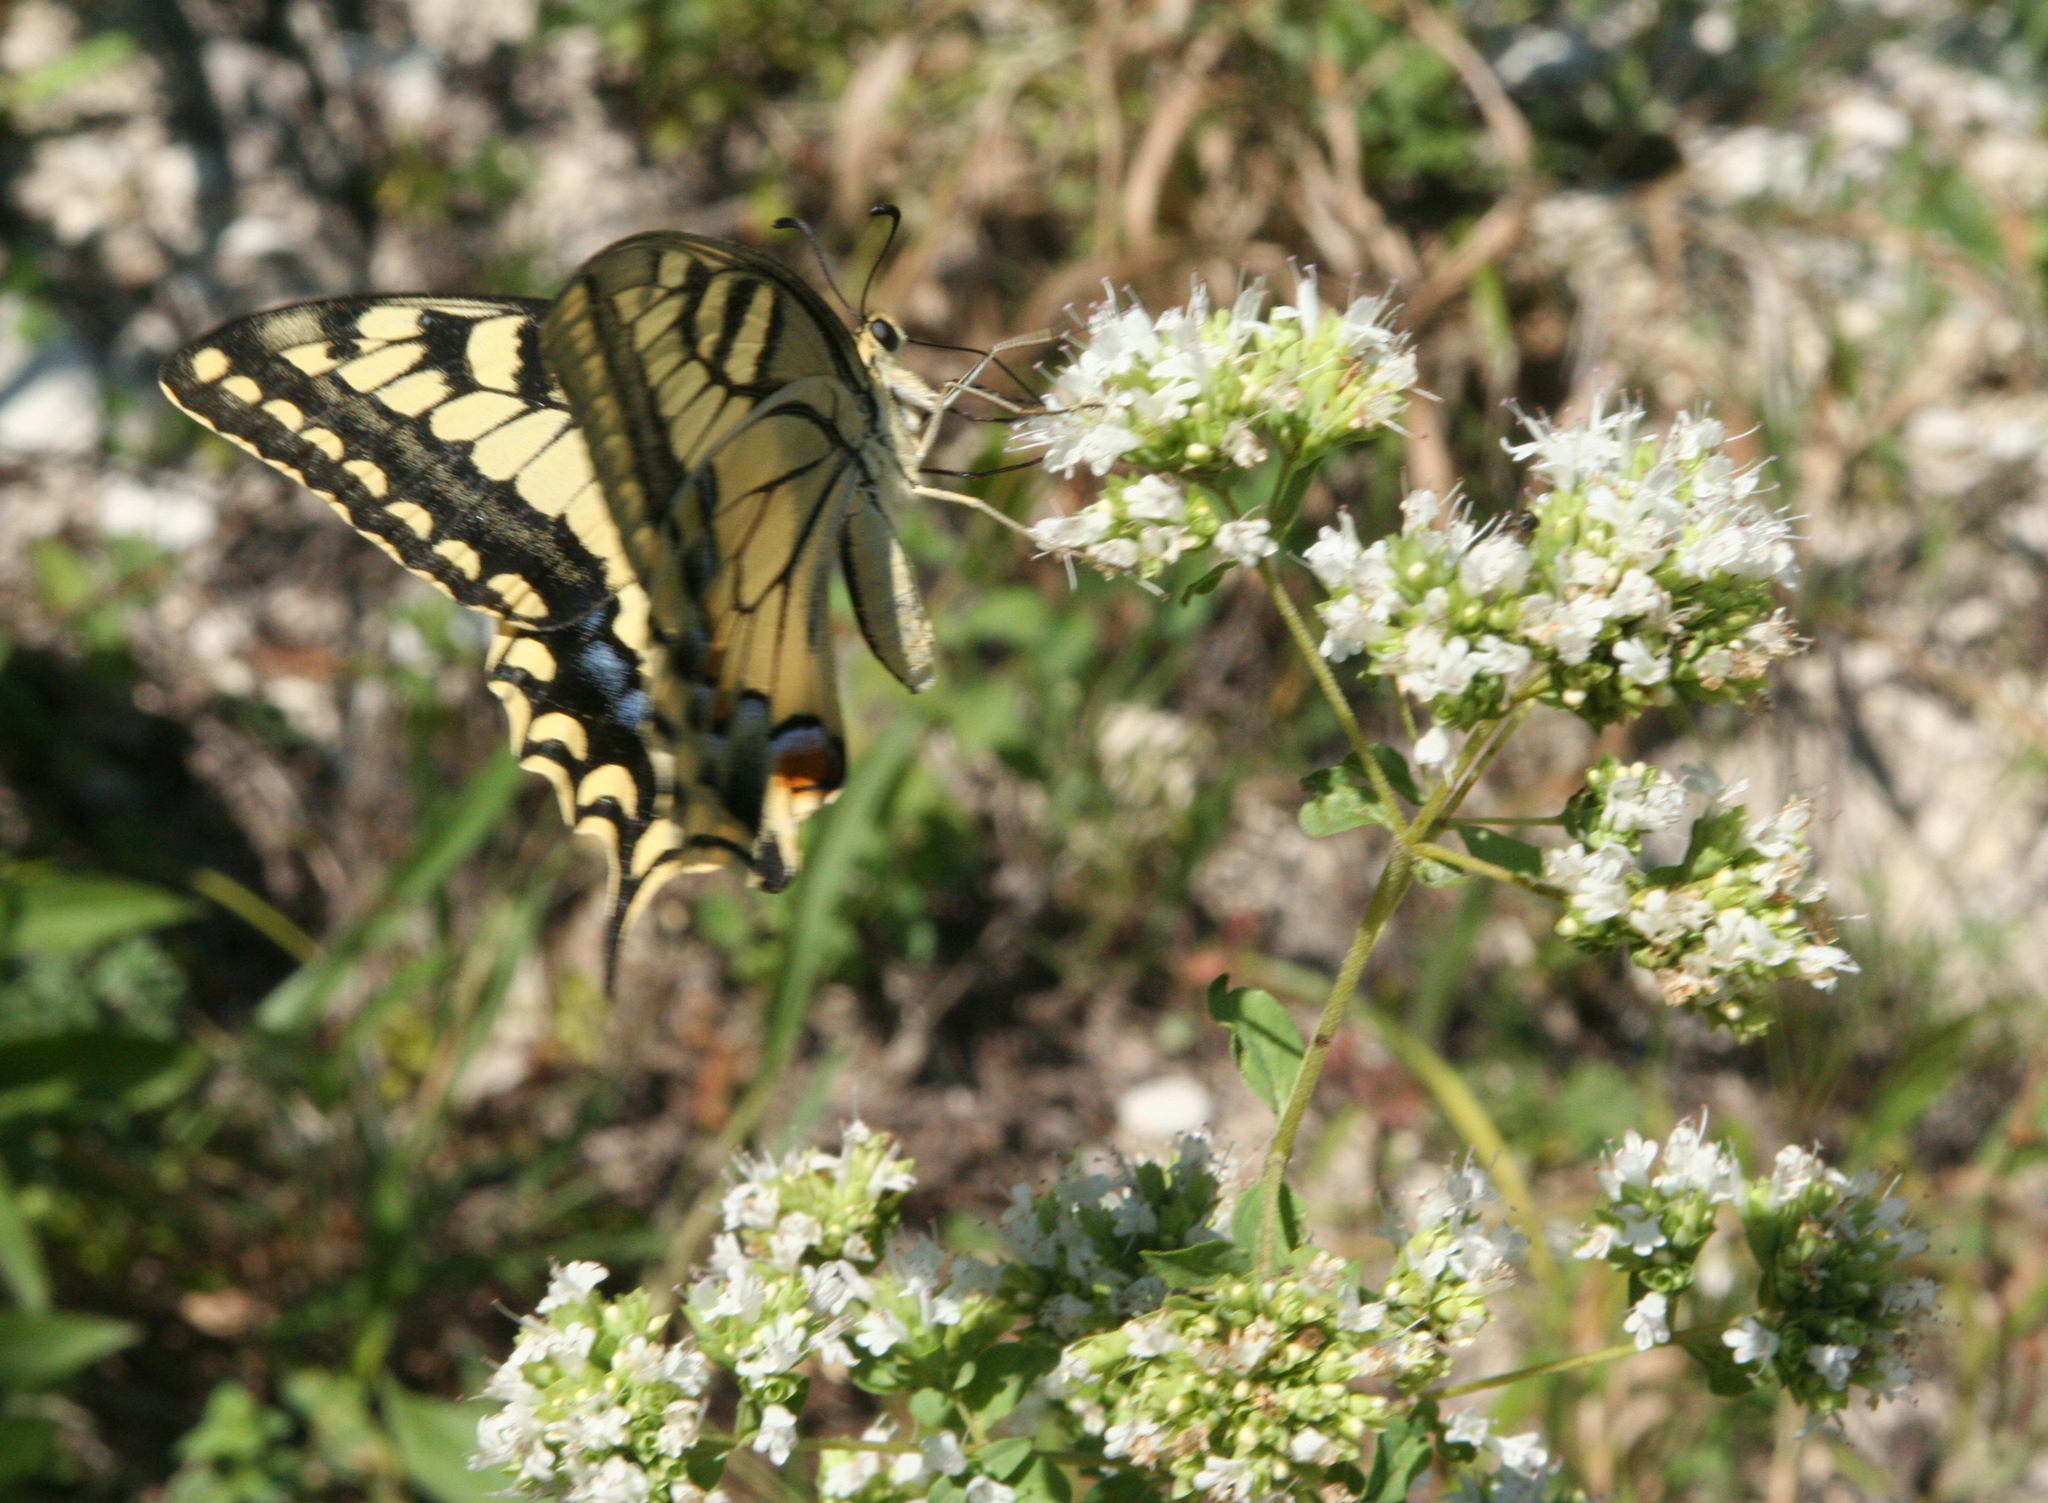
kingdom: Animalia
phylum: Arthropoda
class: Insecta
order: Lepidoptera
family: Papilionidae
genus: Papilio
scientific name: Papilio machaon
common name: Swallowtail
